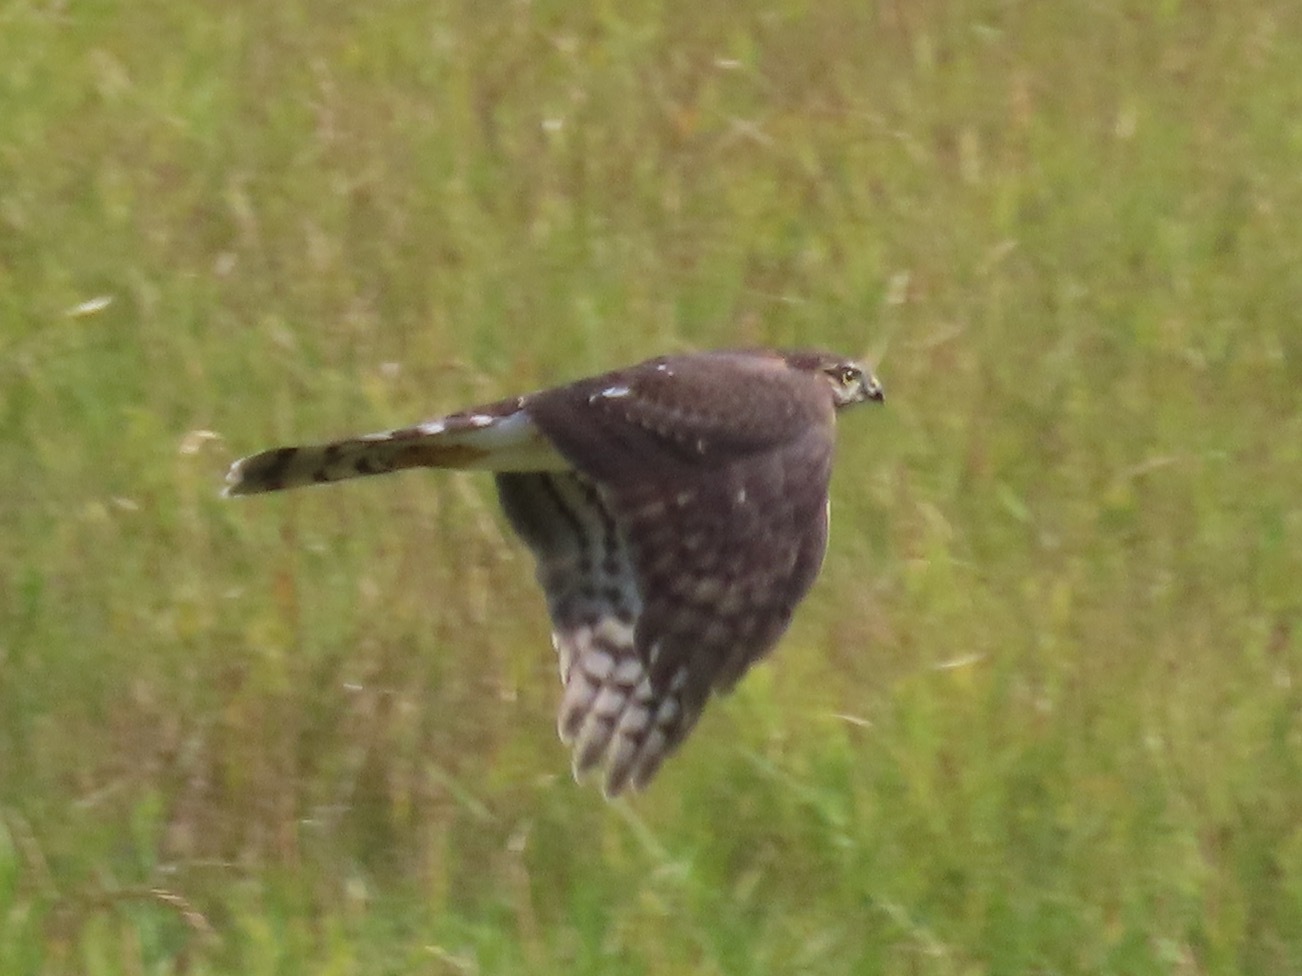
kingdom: Animalia
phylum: Chordata
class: Aves
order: Accipitriformes
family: Accipitridae
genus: Accipiter
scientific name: Accipiter striatus
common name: Sharp-shinned hawk
